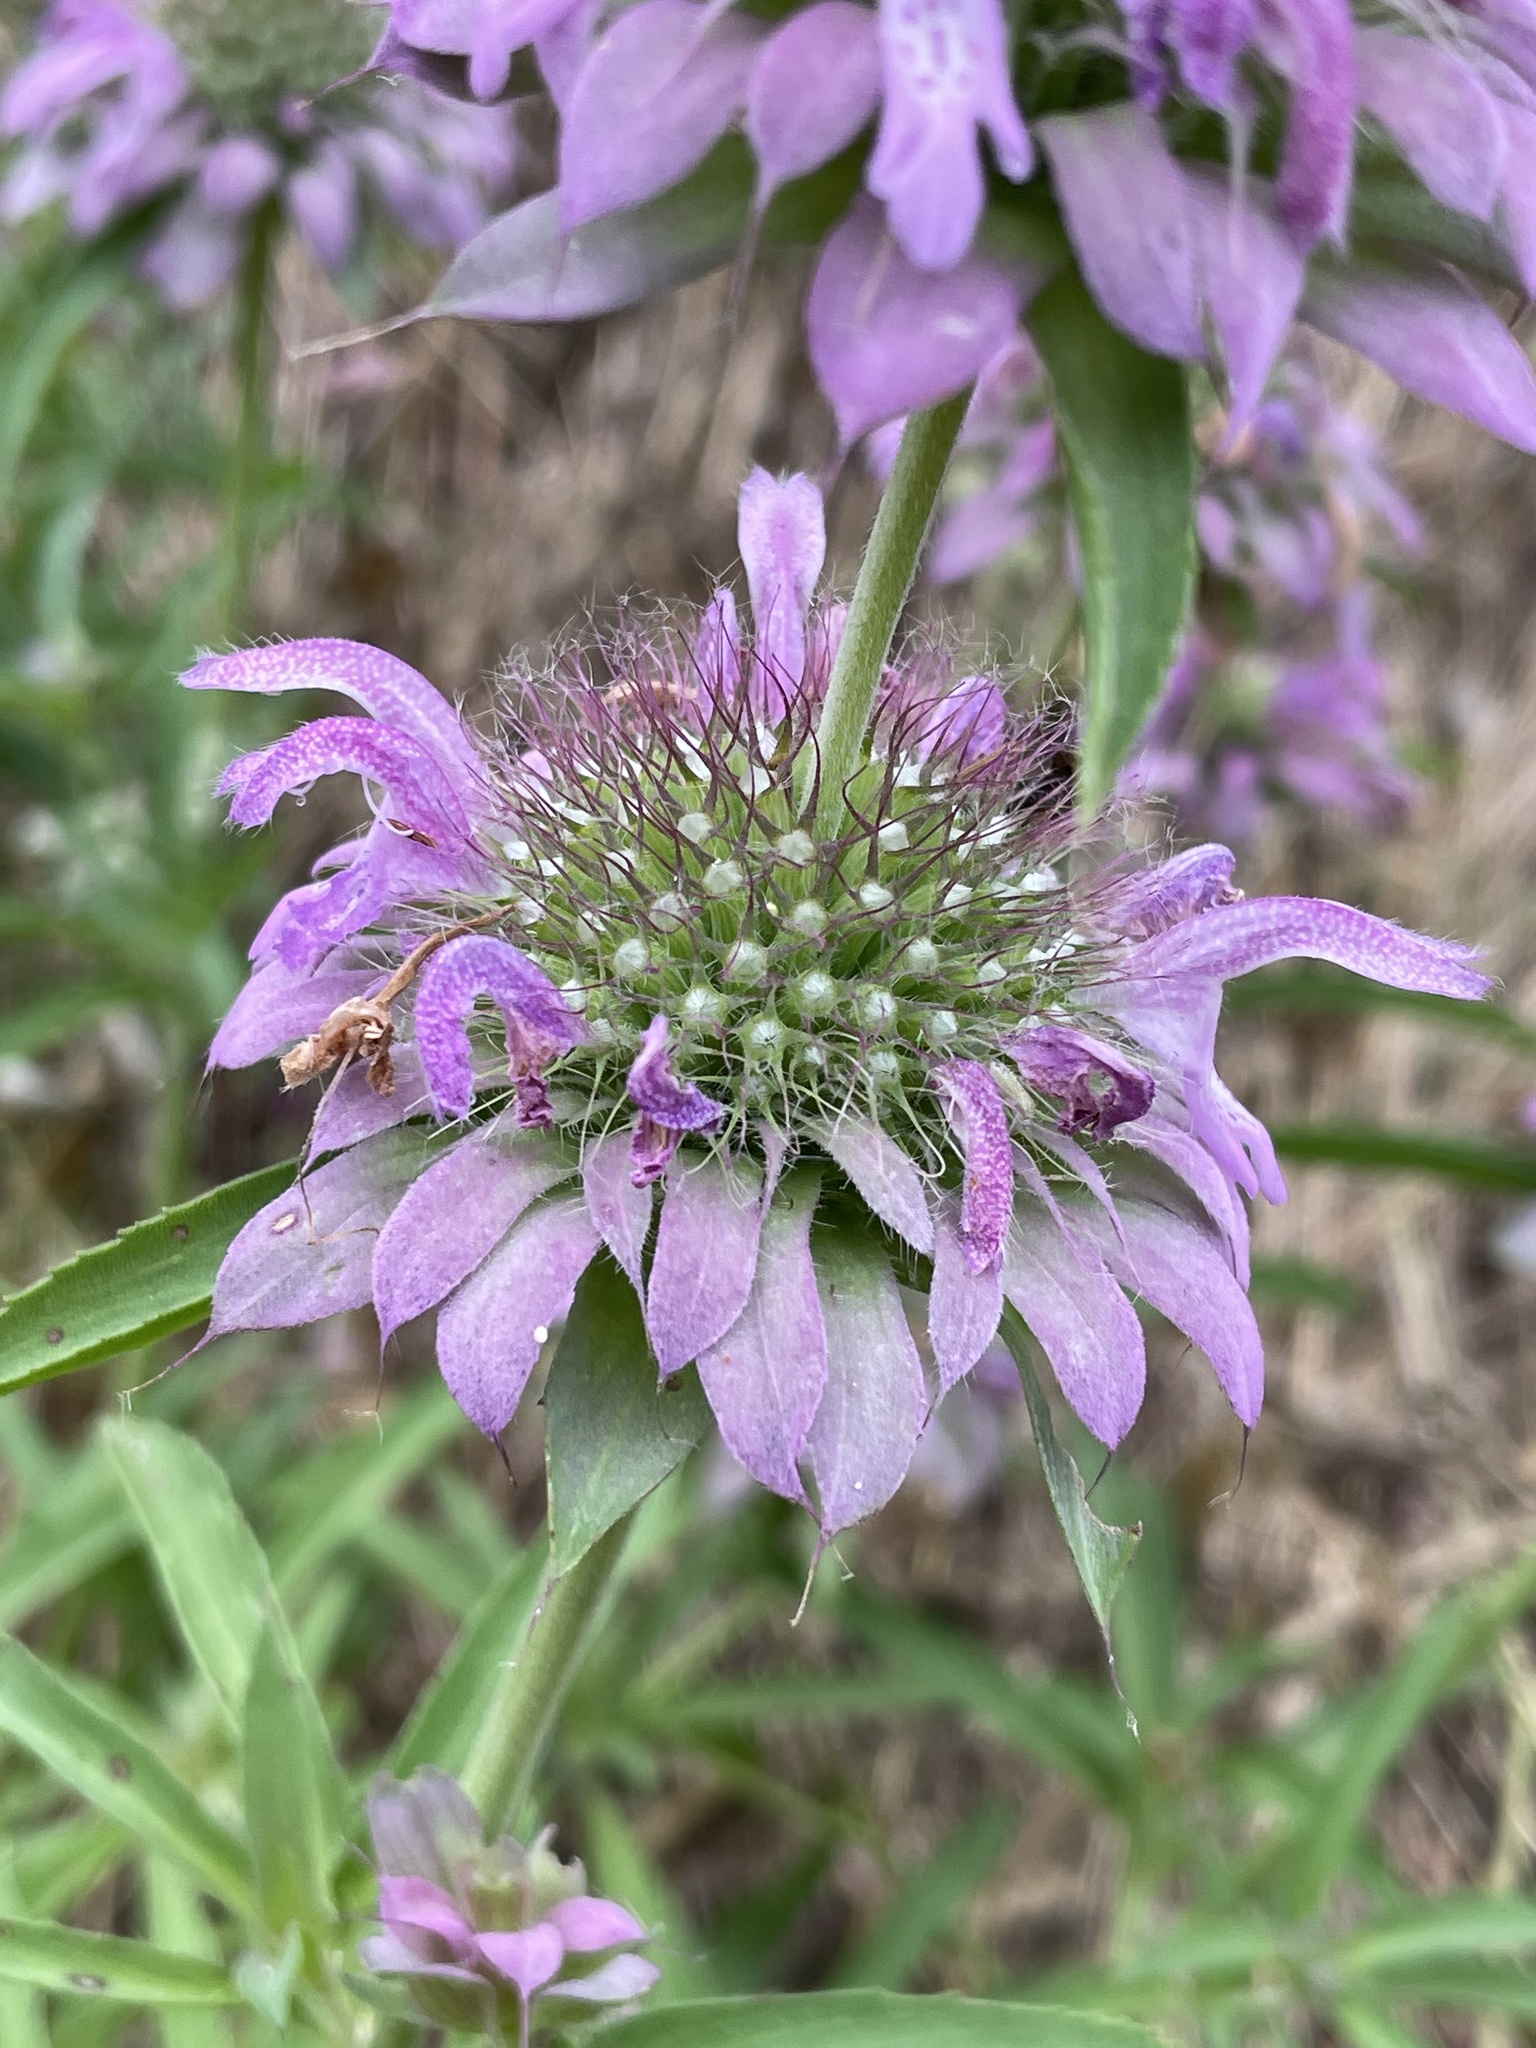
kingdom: Plantae
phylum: Tracheophyta
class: Magnoliopsida
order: Lamiales
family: Lamiaceae
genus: Monarda
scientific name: Monarda citriodora
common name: Lemon beebalm
